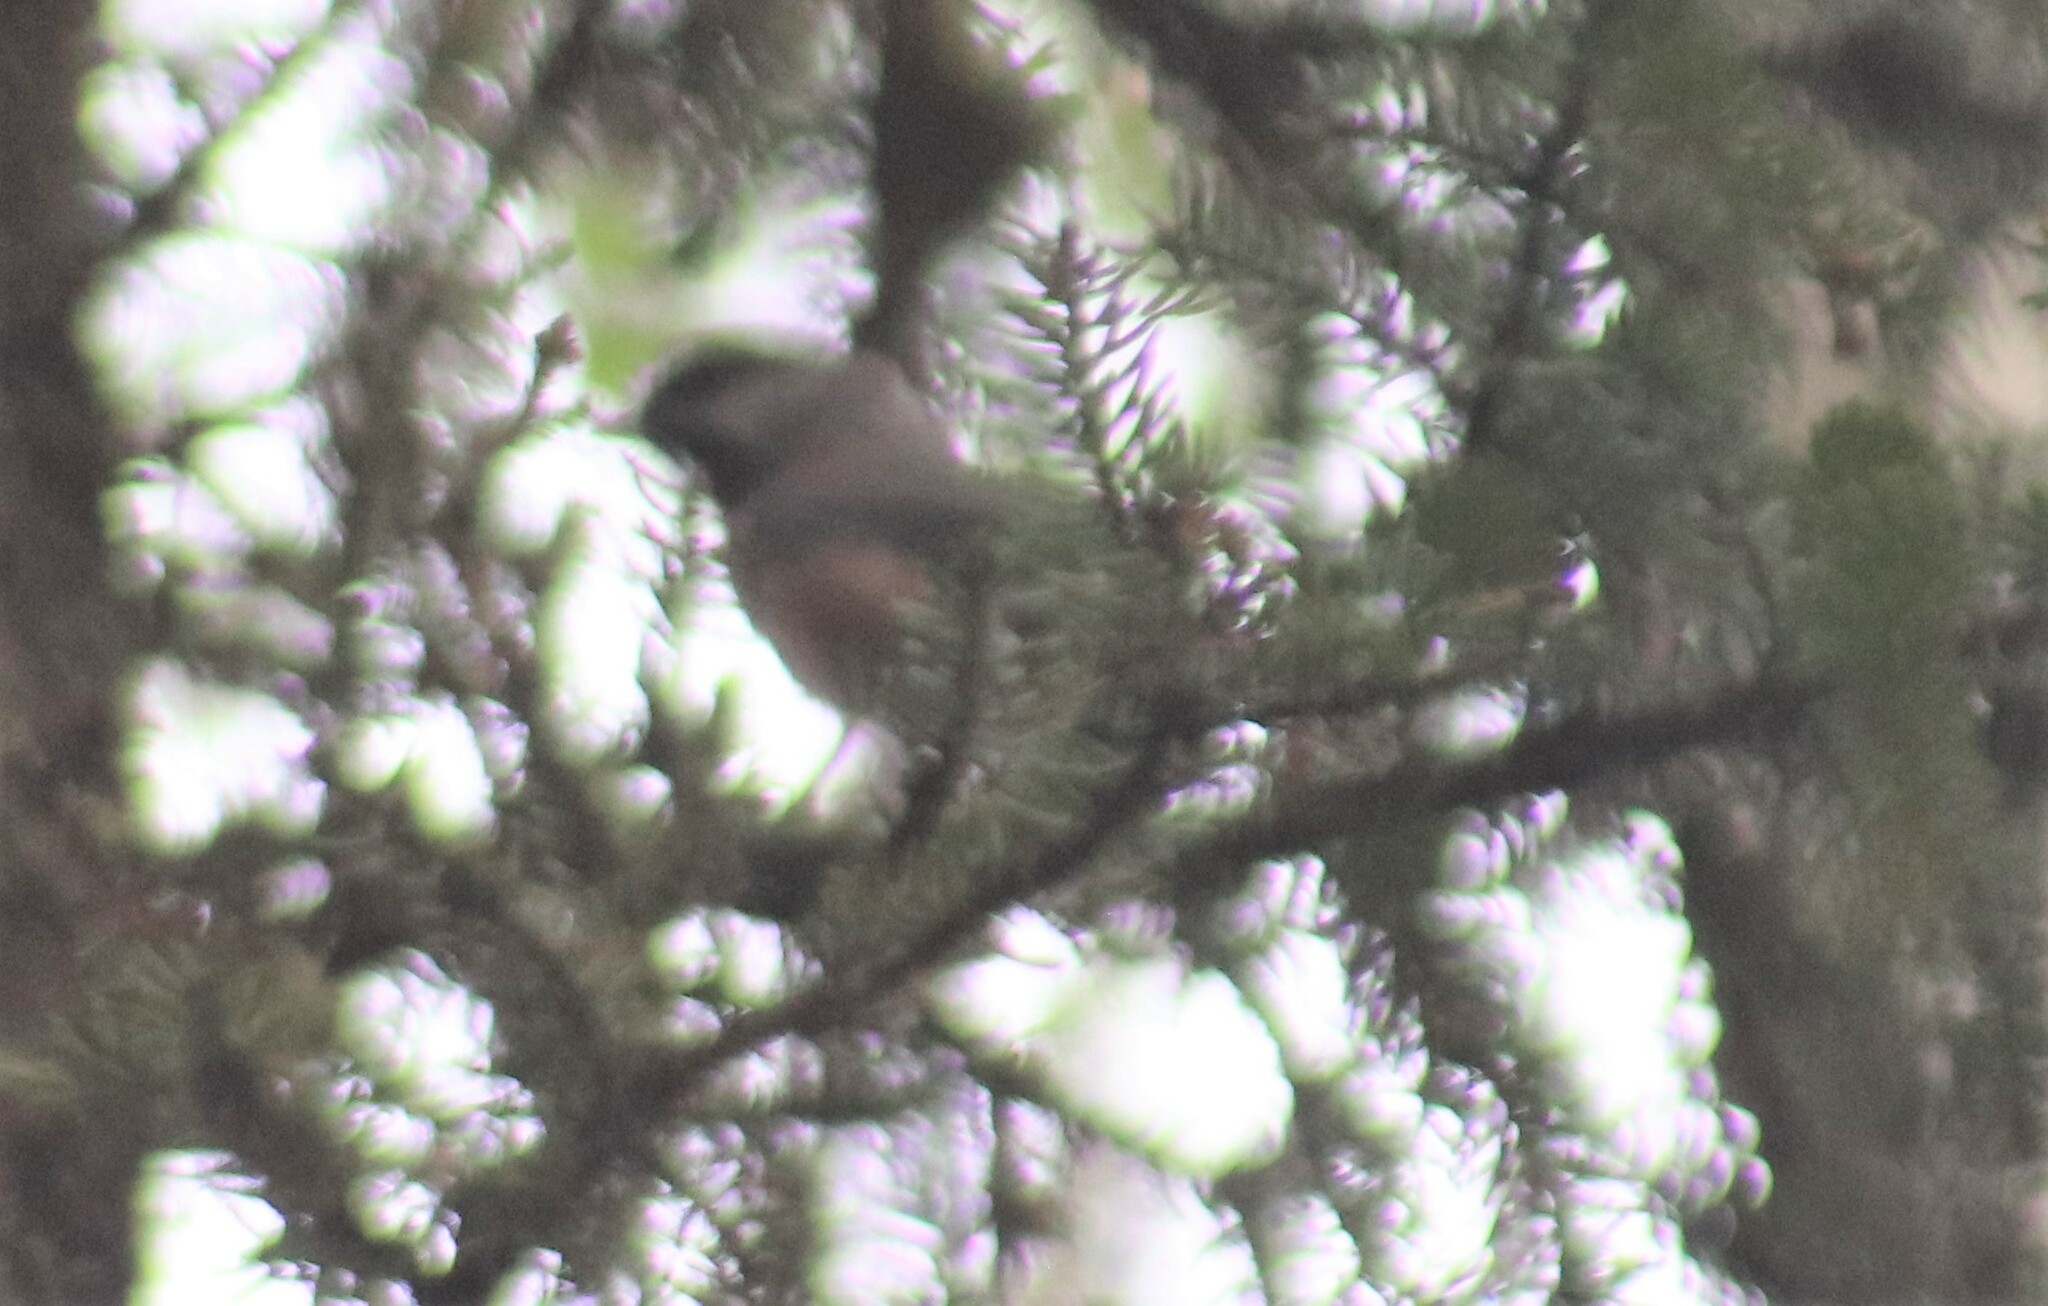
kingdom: Animalia
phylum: Chordata
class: Aves
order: Passeriformes
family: Paridae
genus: Poecile
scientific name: Poecile hudsonicus
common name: Boreal chickadee
